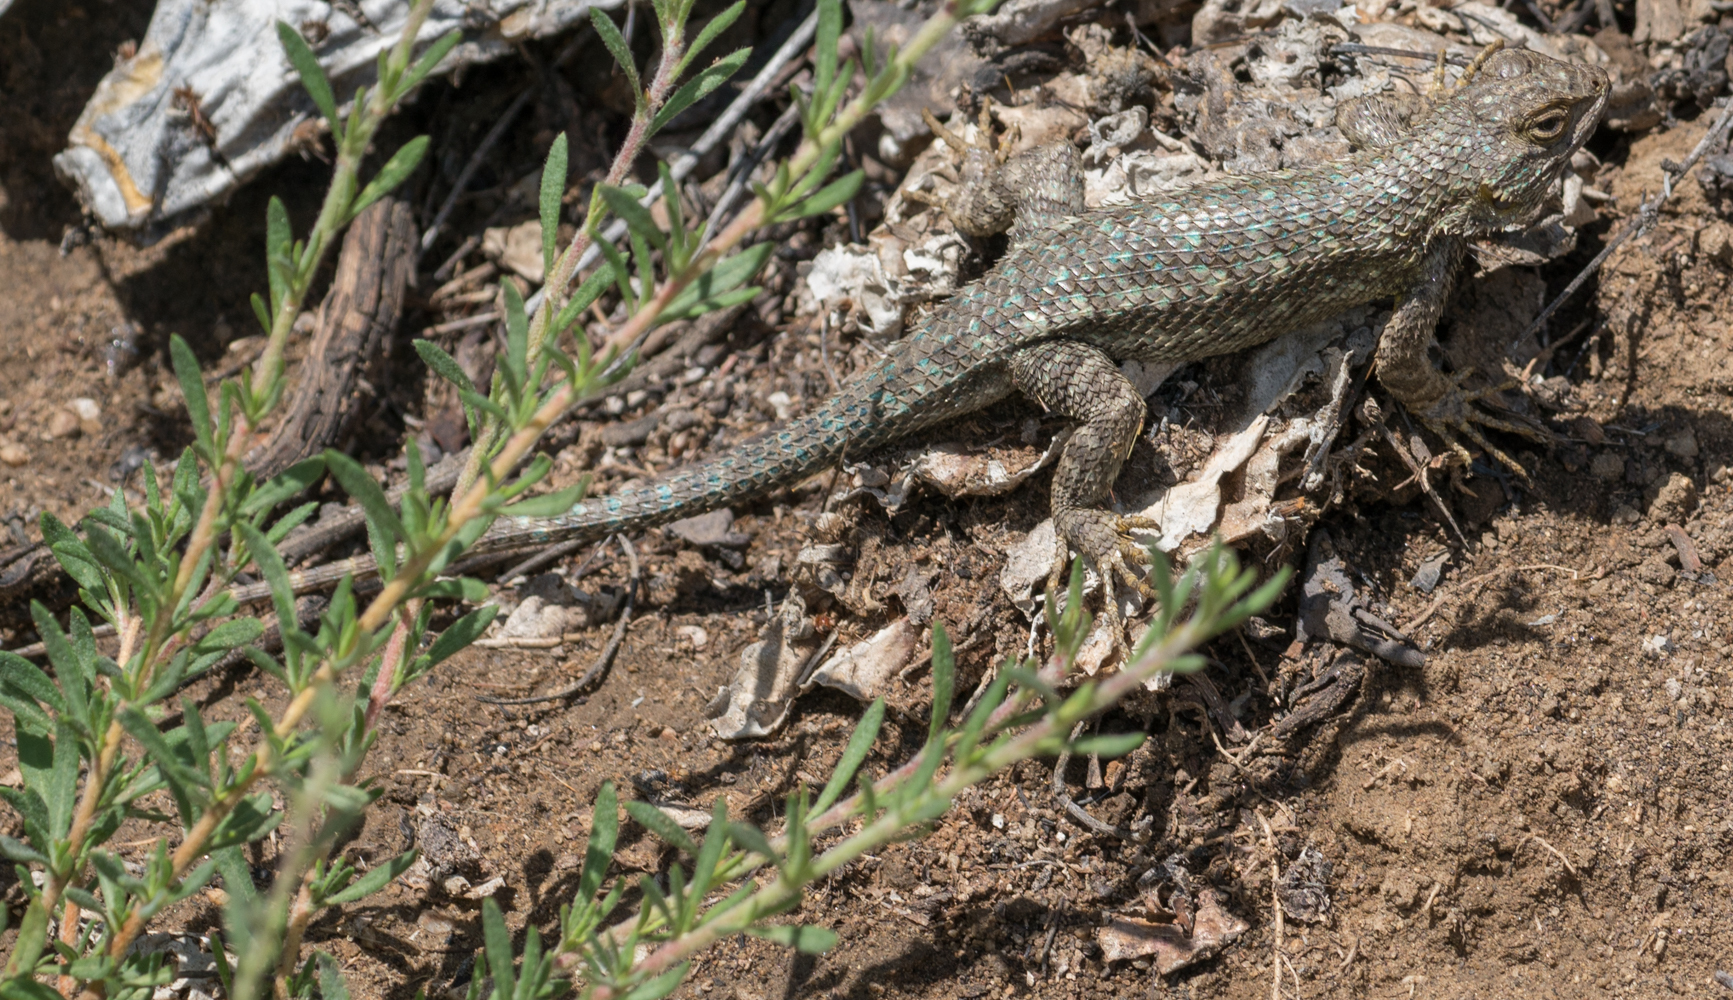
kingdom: Animalia
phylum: Chordata
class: Squamata
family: Phrynosomatidae
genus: Sceloporus
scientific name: Sceloporus occidentalis
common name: Western fence lizard
